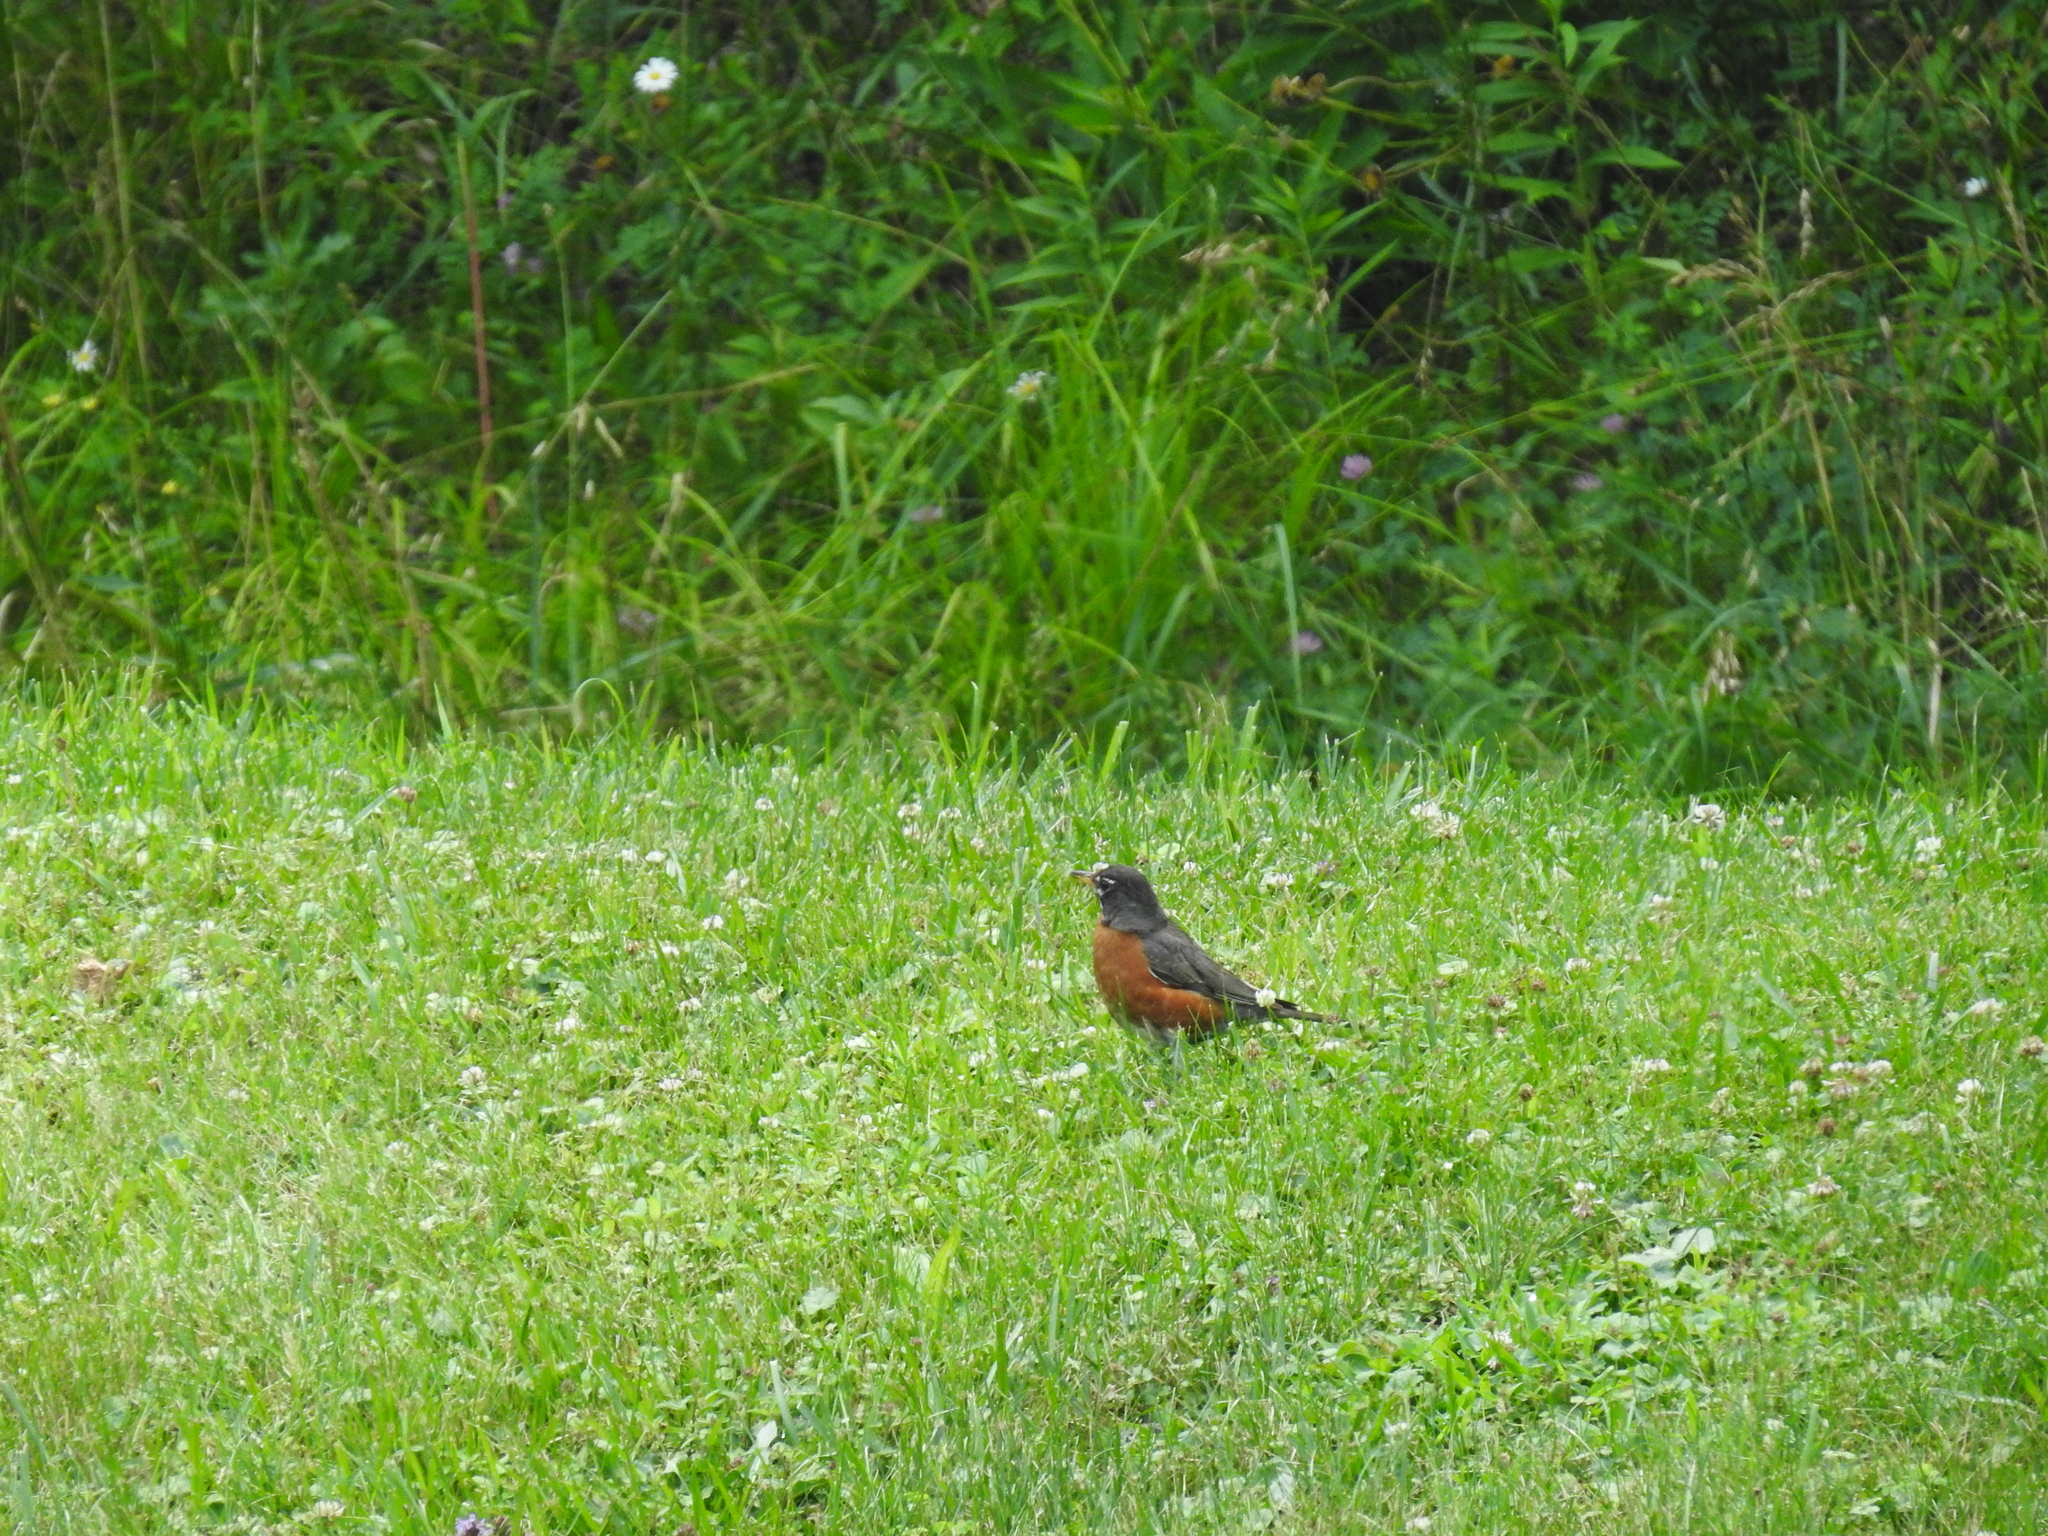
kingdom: Animalia
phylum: Chordata
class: Aves
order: Passeriformes
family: Turdidae
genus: Turdus
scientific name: Turdus migratorius
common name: American robin
